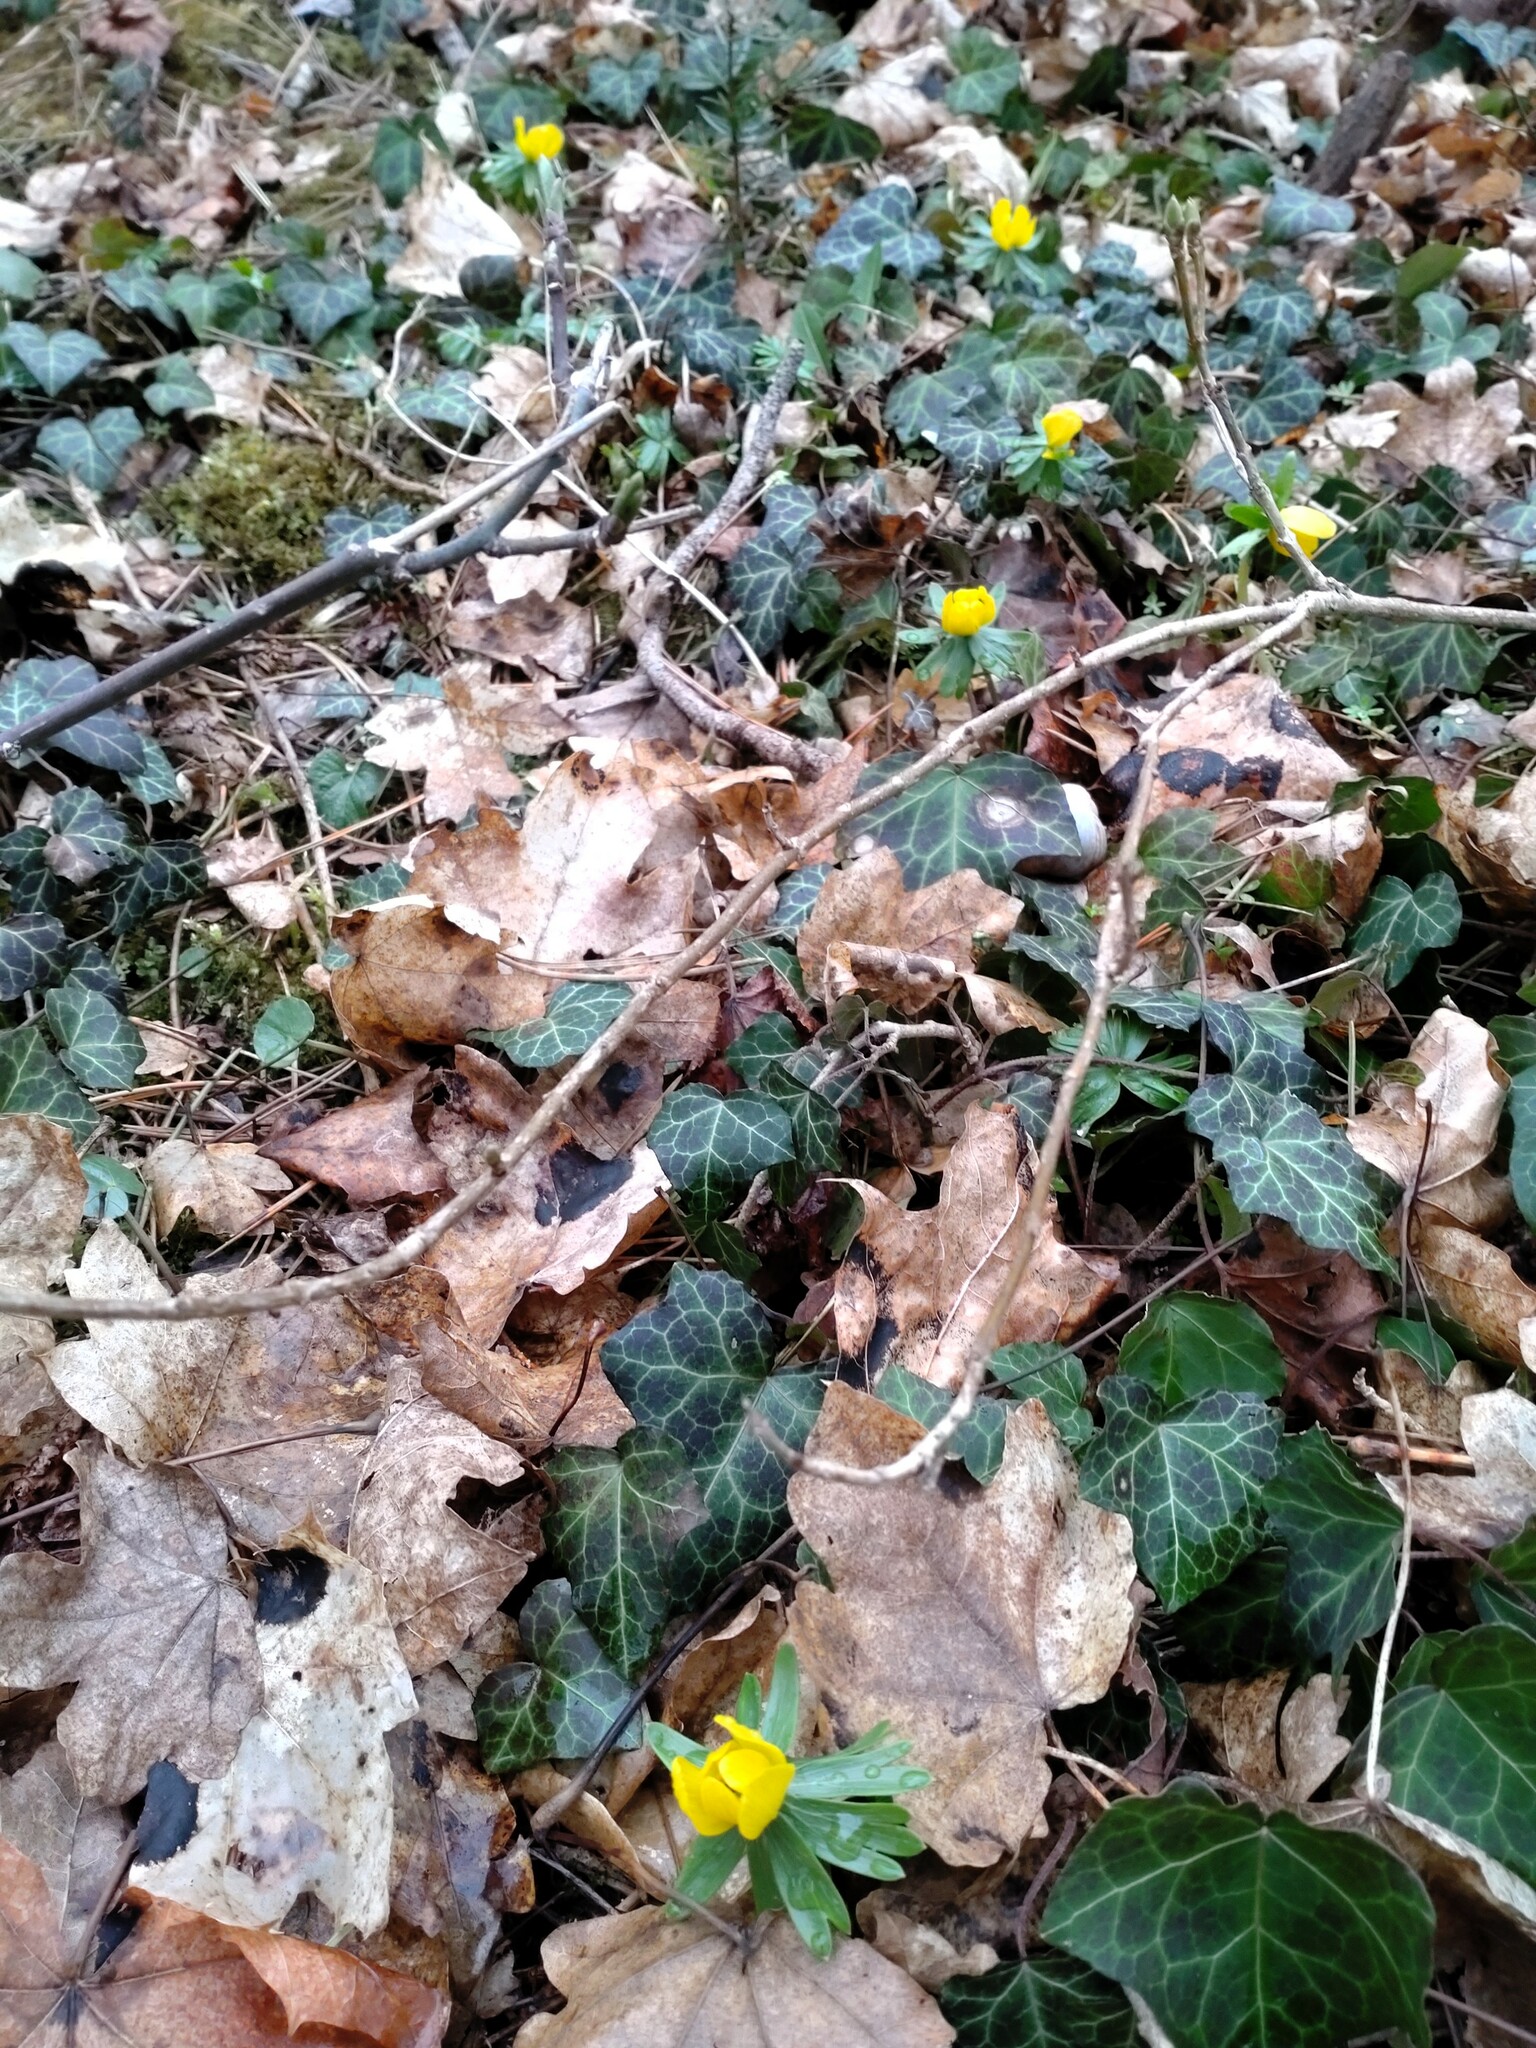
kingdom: Plantae
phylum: Tracheophyta
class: Magnoliopsida
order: Ranunculales
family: Ranunculaceae
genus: Eranthis
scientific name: Eranthis hyemalis
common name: Winter aconite
